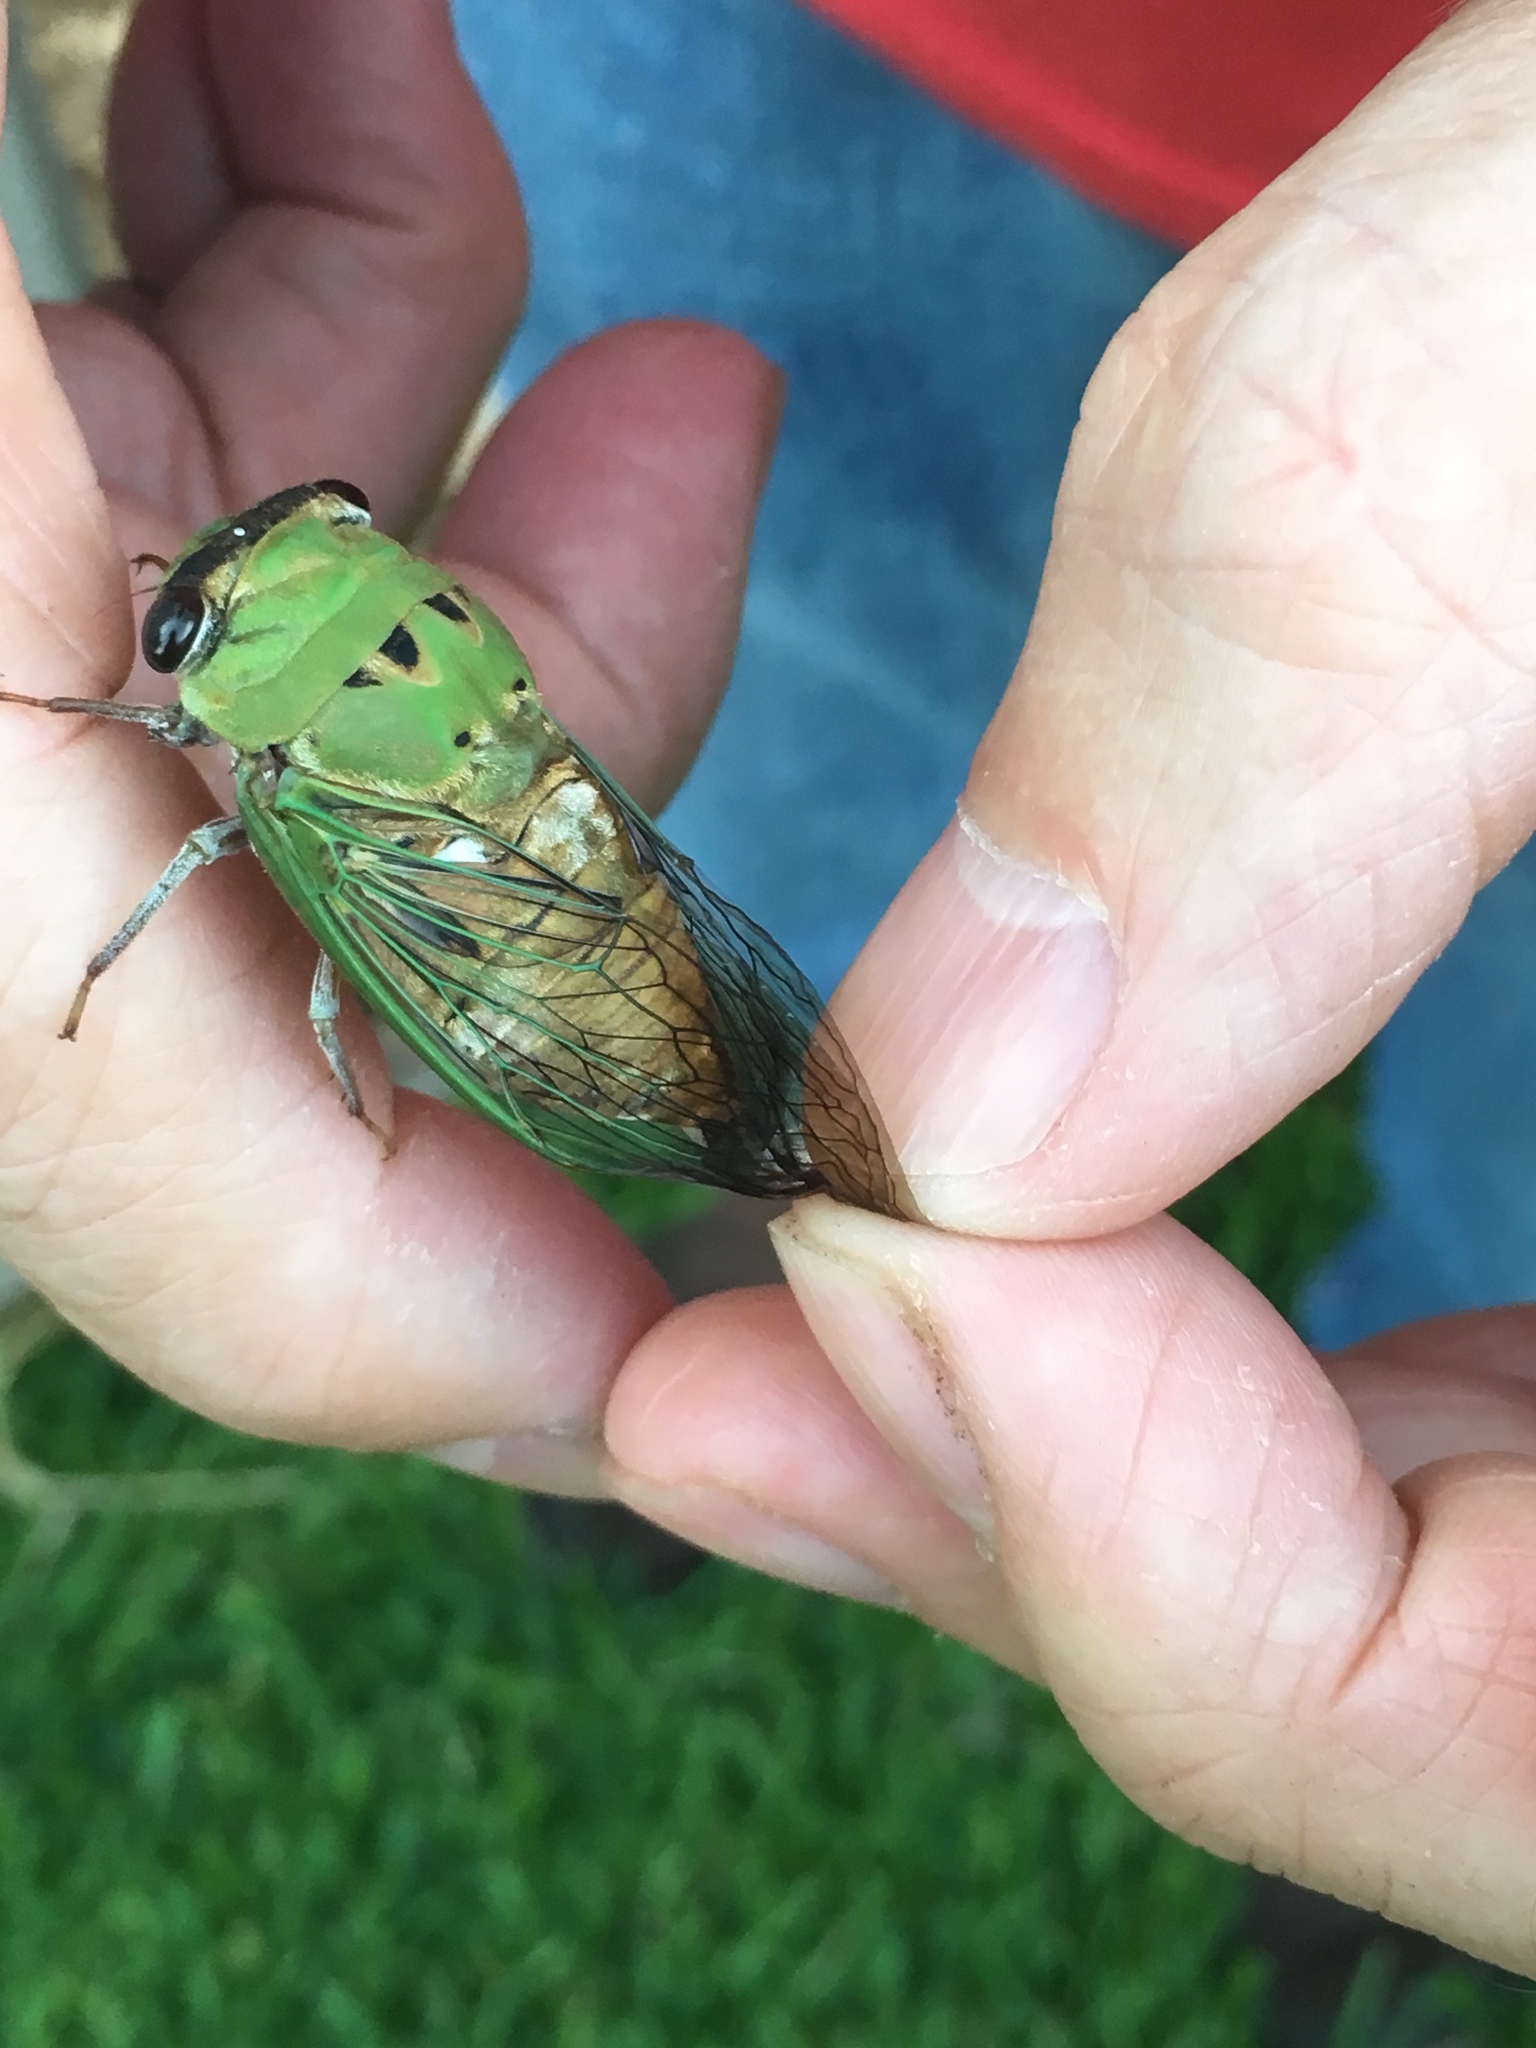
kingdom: Animalia
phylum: Arthropoda
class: Insecta
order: Hemiptera
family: Cicadidae
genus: Neotibicen
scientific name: Neotibicen superbus
